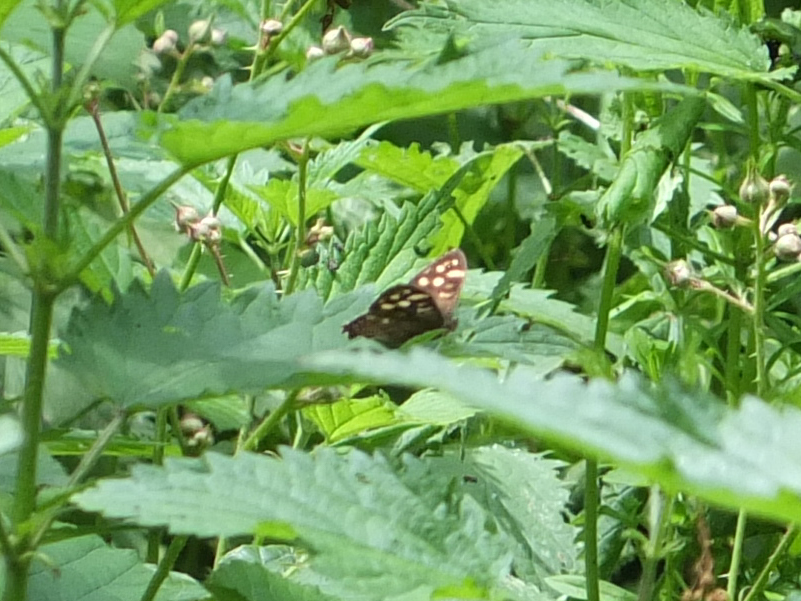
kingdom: Animalia
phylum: Arthropoda
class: Insecta
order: Lepidoptera
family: Nymphalidae
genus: Pararge
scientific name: Pararge aegeria
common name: Speckled wood
